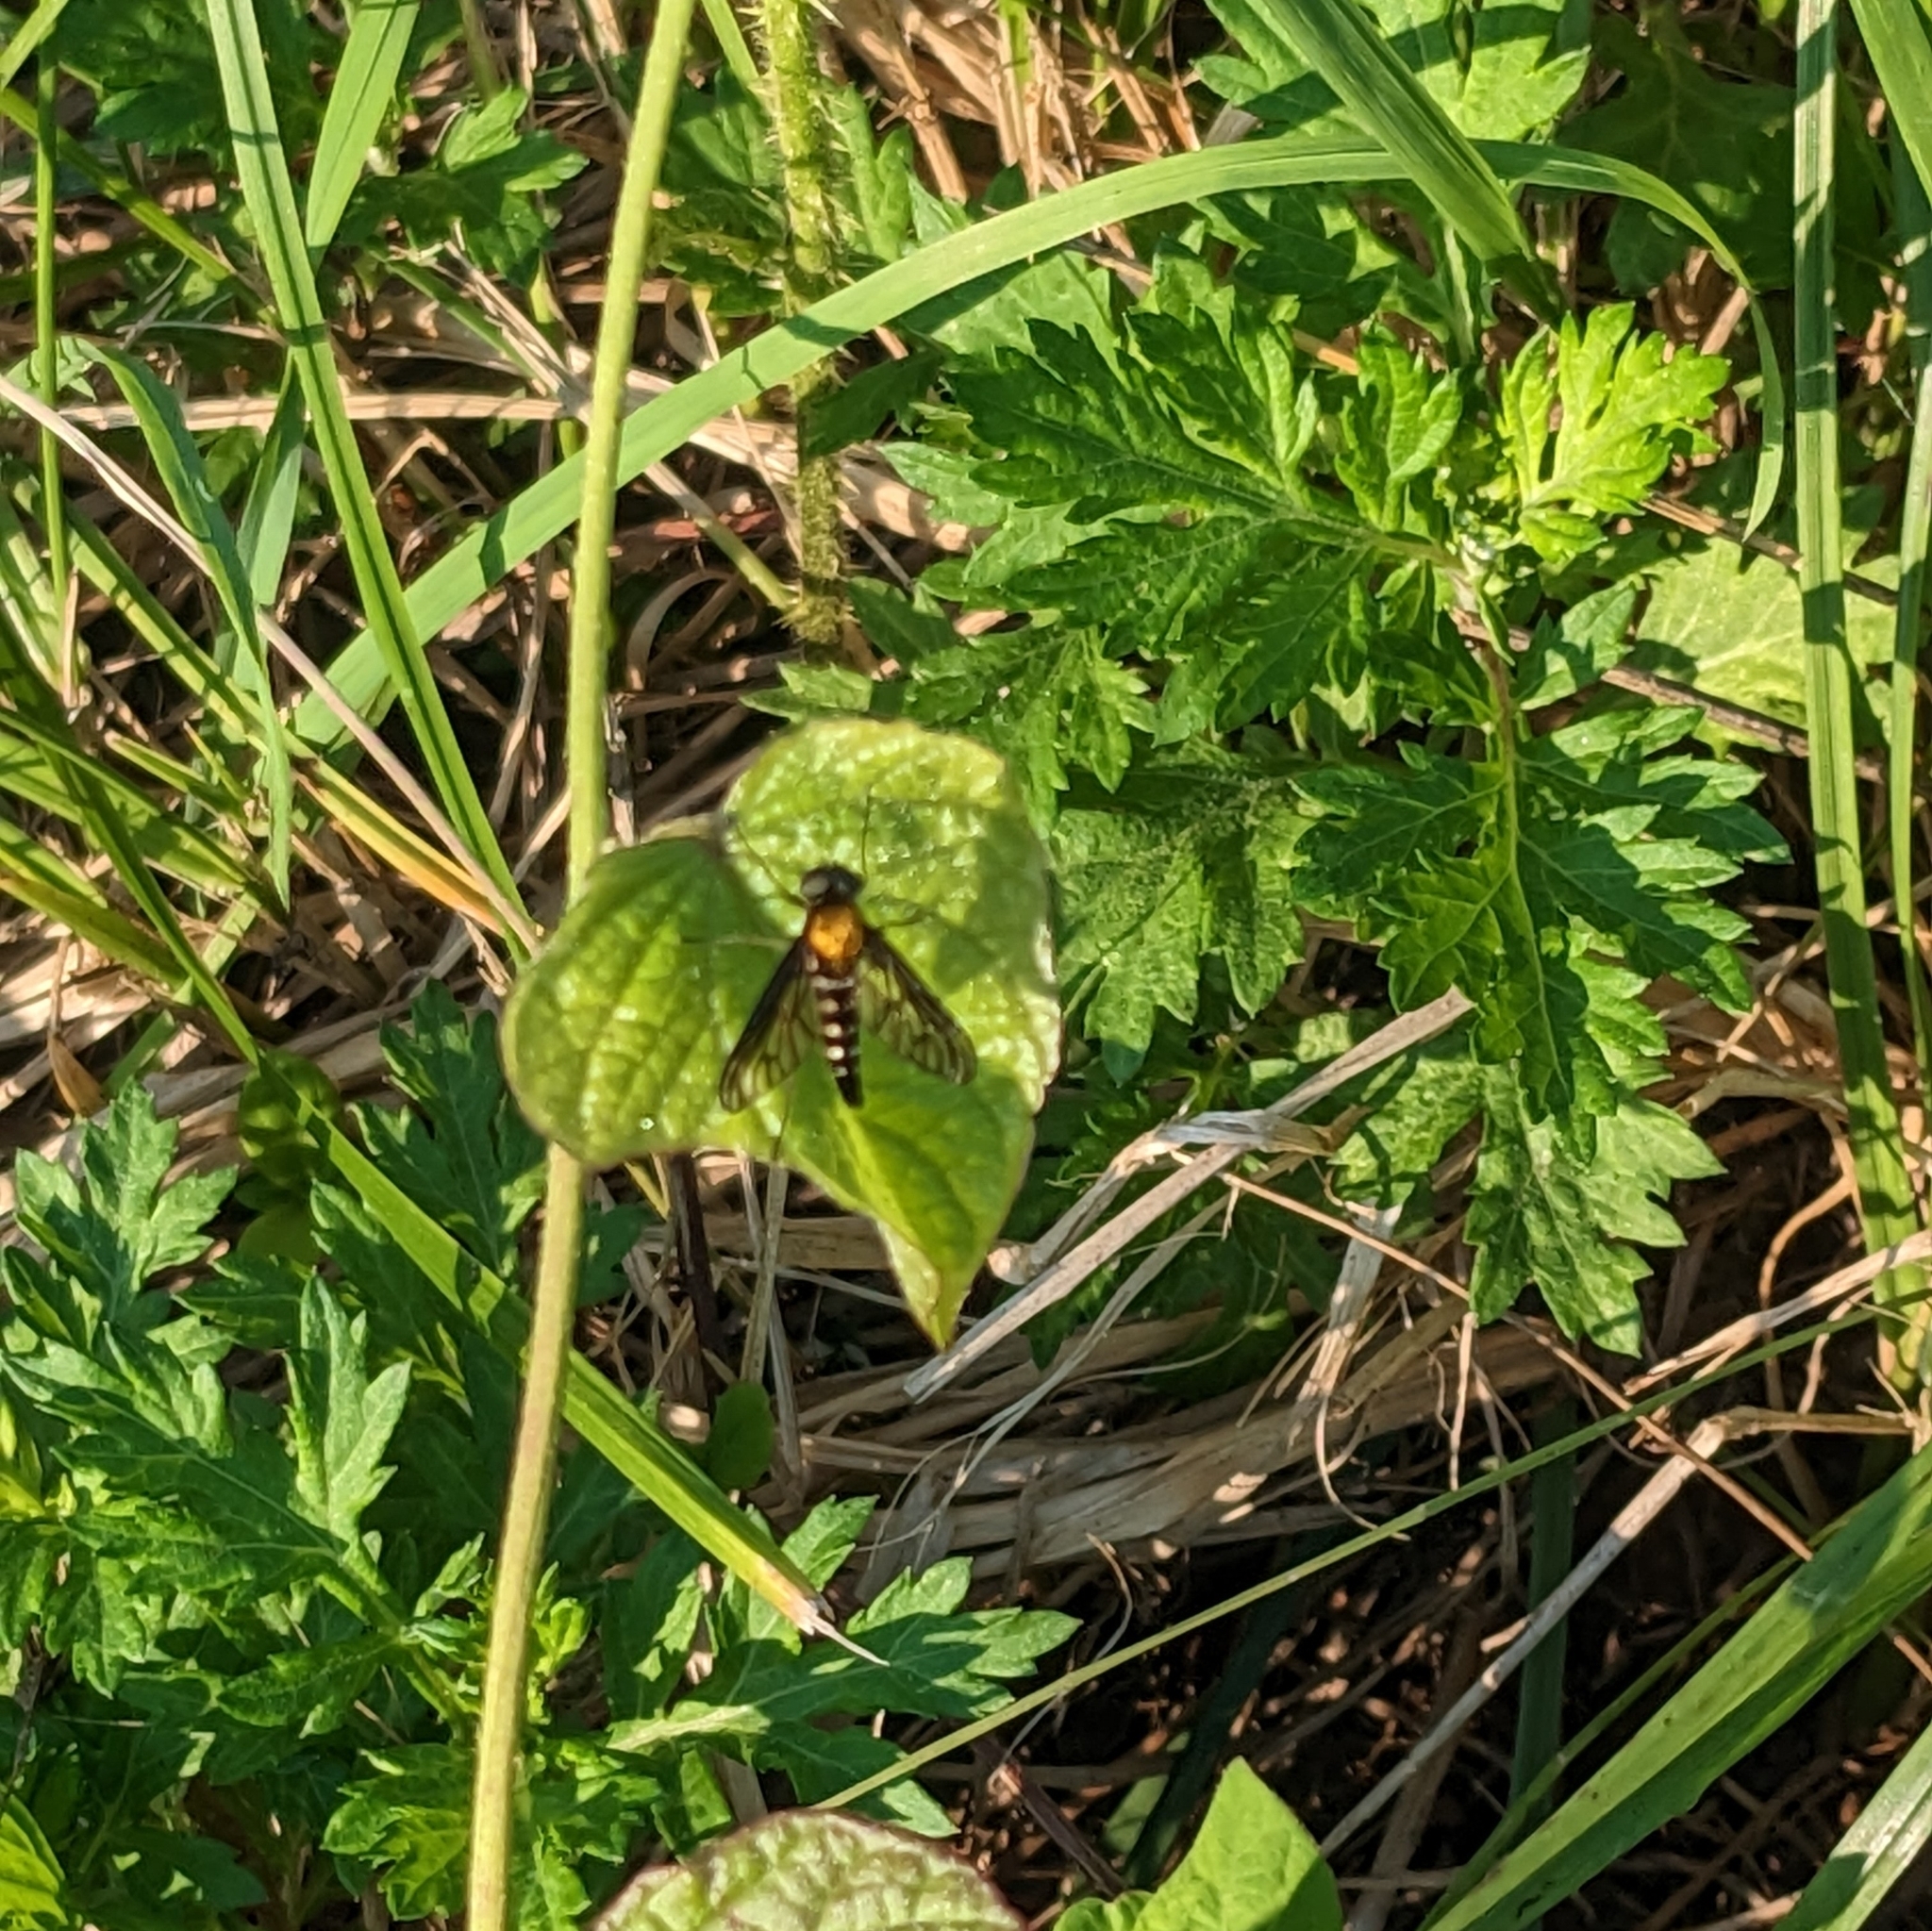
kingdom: Animalia
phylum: Arthropoda
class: Insecta
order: Diptera
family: Rhagionidae
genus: Chrysopilus
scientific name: Chrysopilus thoracicus
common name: Golden-backed snipe fly
